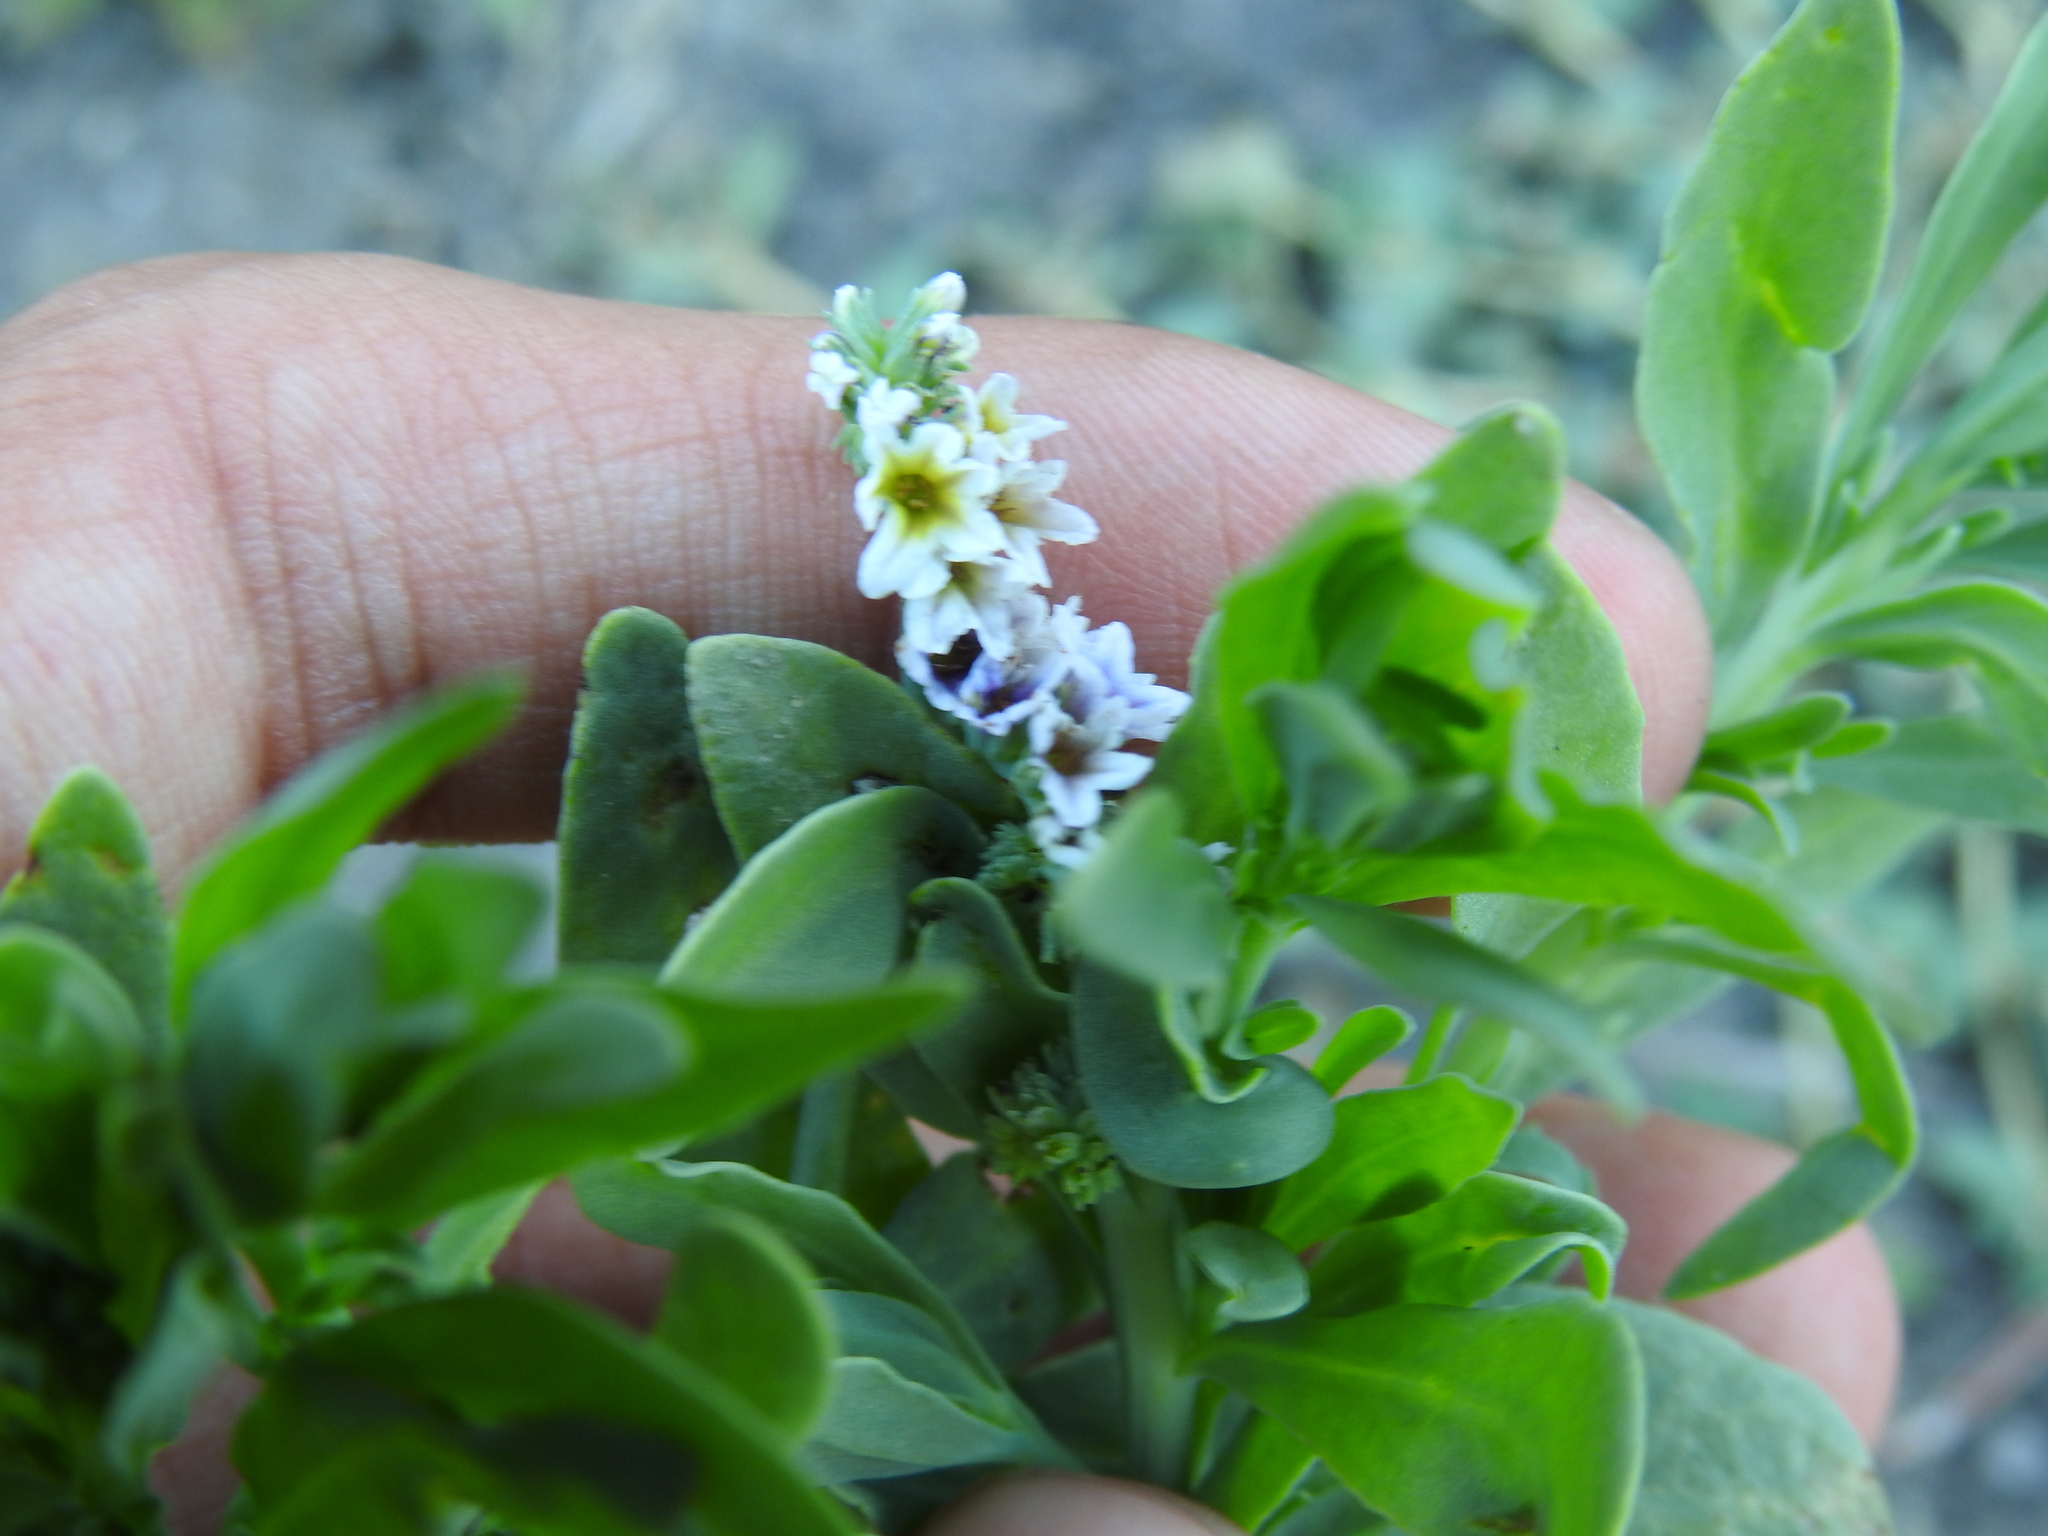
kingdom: Plantae
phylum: Tracheophyta
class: Magnoliopsida
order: Boraginales
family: Heliotropiaceae
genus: Heliotropium
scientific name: Heliotropium curassavicum
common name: Seaside heliotrope
